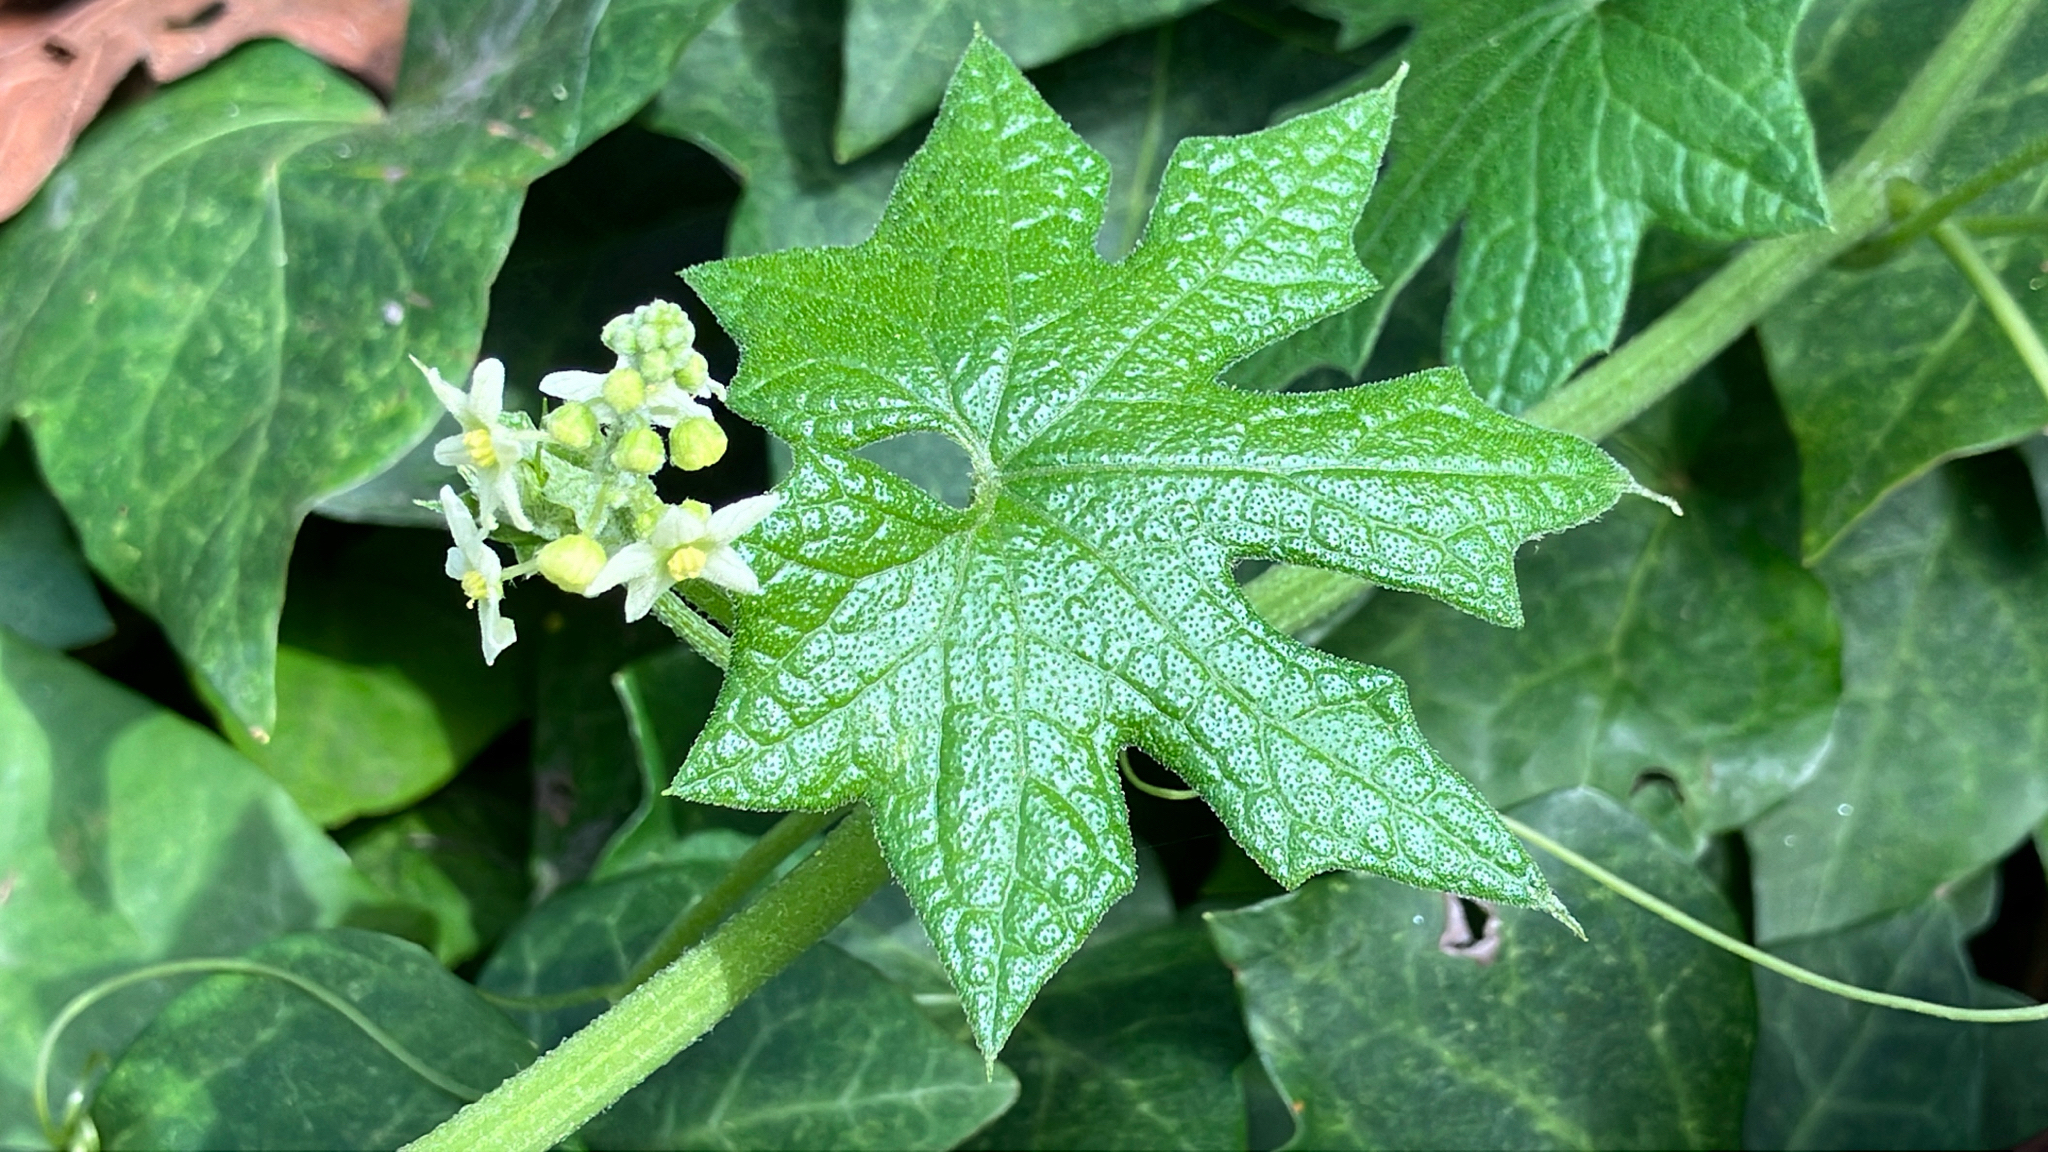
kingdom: Plantae
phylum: Tracheophyta
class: Magnoliopsida
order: Cucurbitales
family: Cucurbitaceae
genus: Marah
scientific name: Marah fabacea
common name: California manroot
